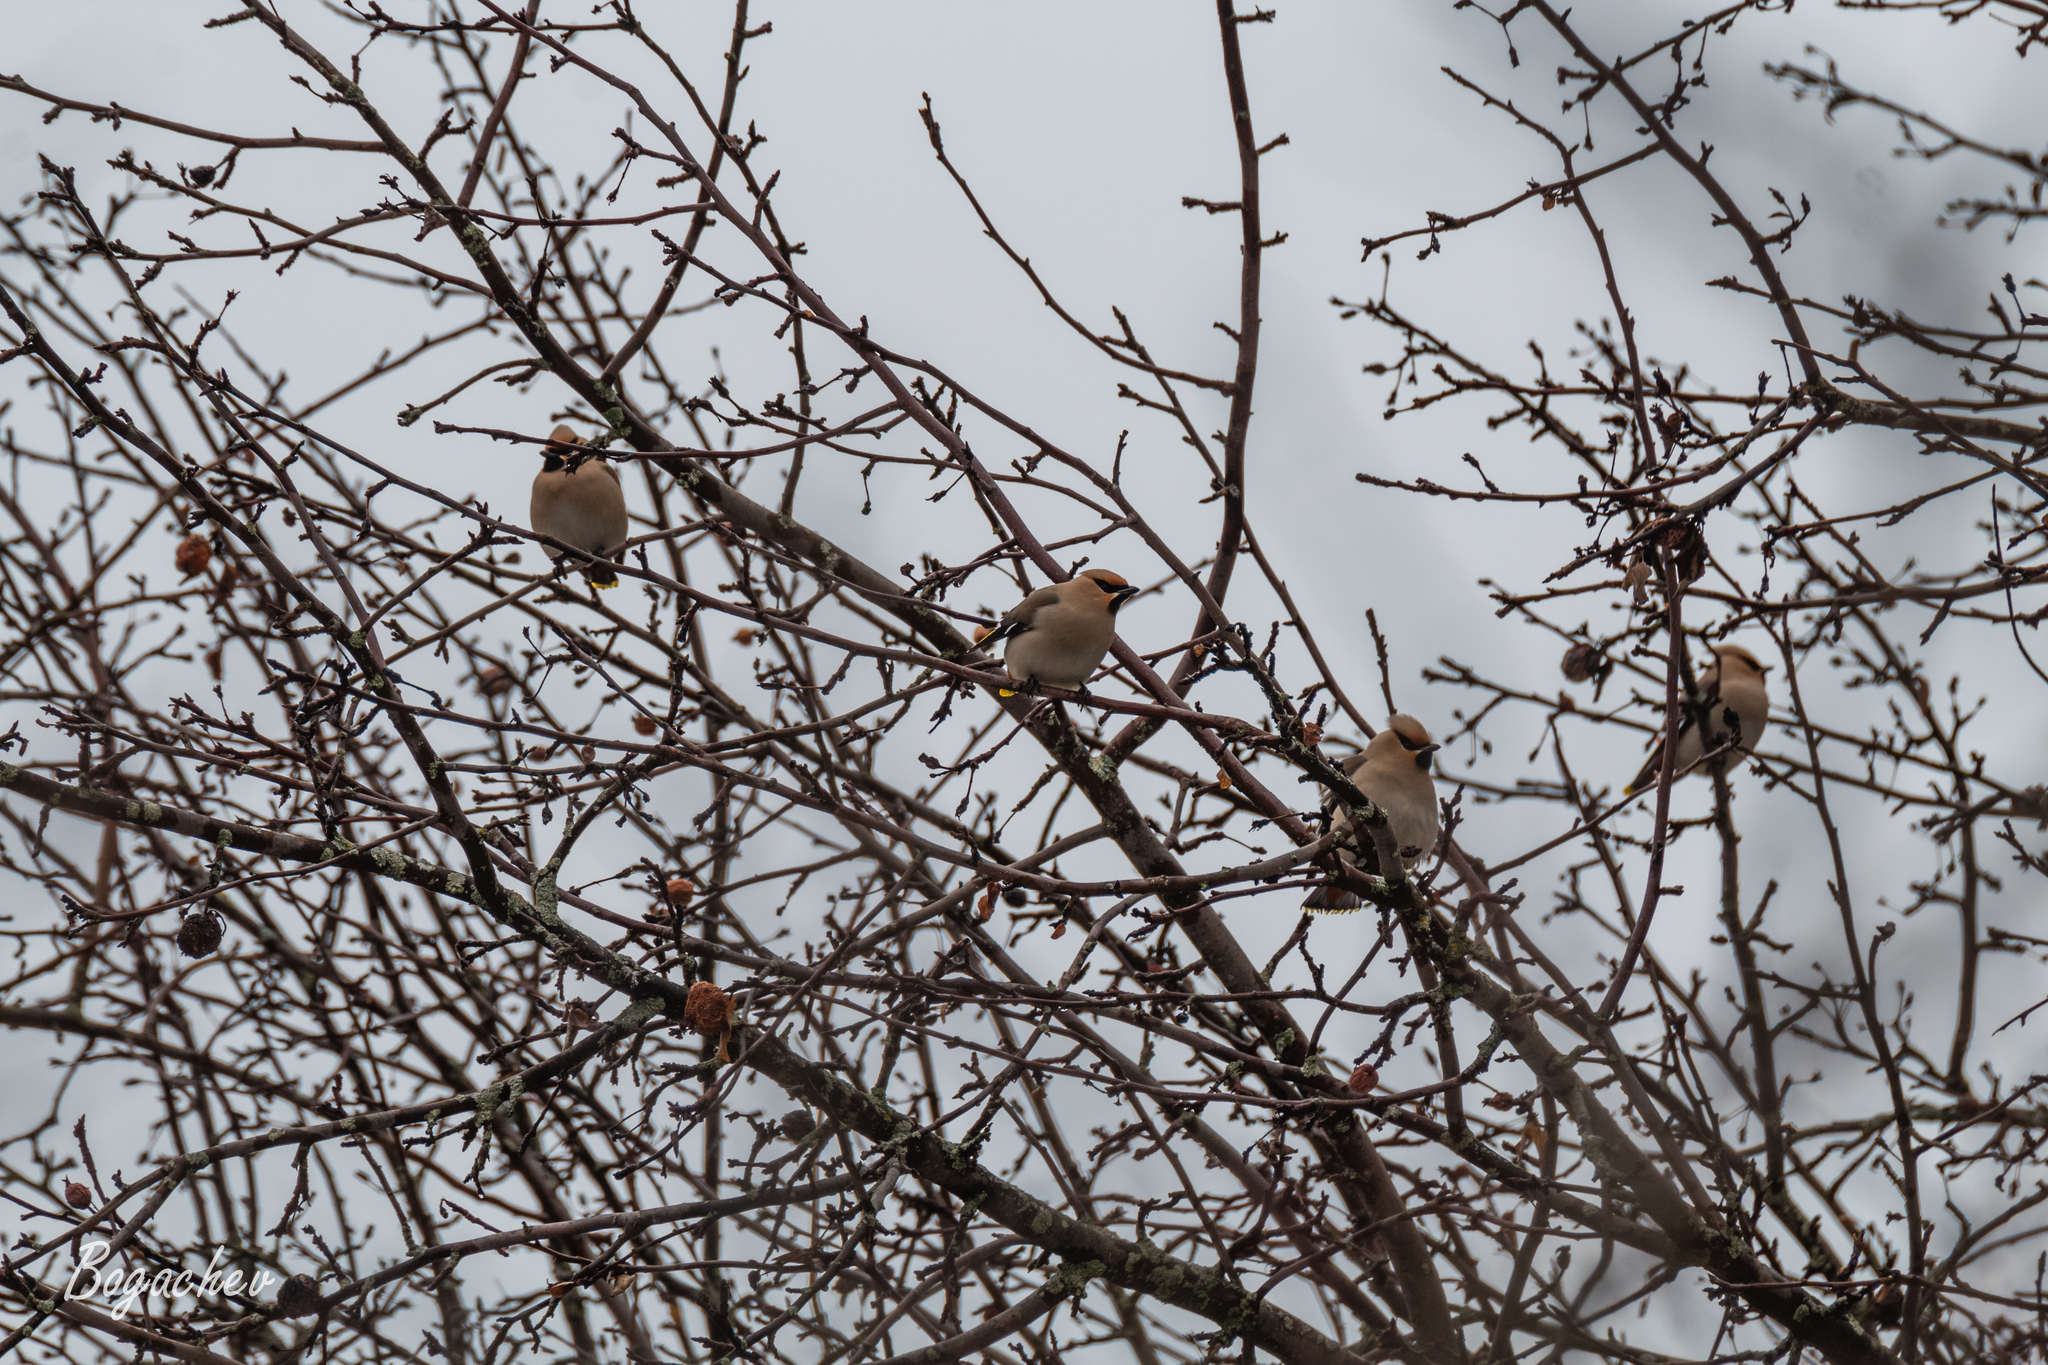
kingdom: Animalia
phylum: Chordata
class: Aves
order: Passeriformes
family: Bombycillidae
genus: Bombycilla
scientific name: Bombycilla garrulus
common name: Bohemian waxwing
